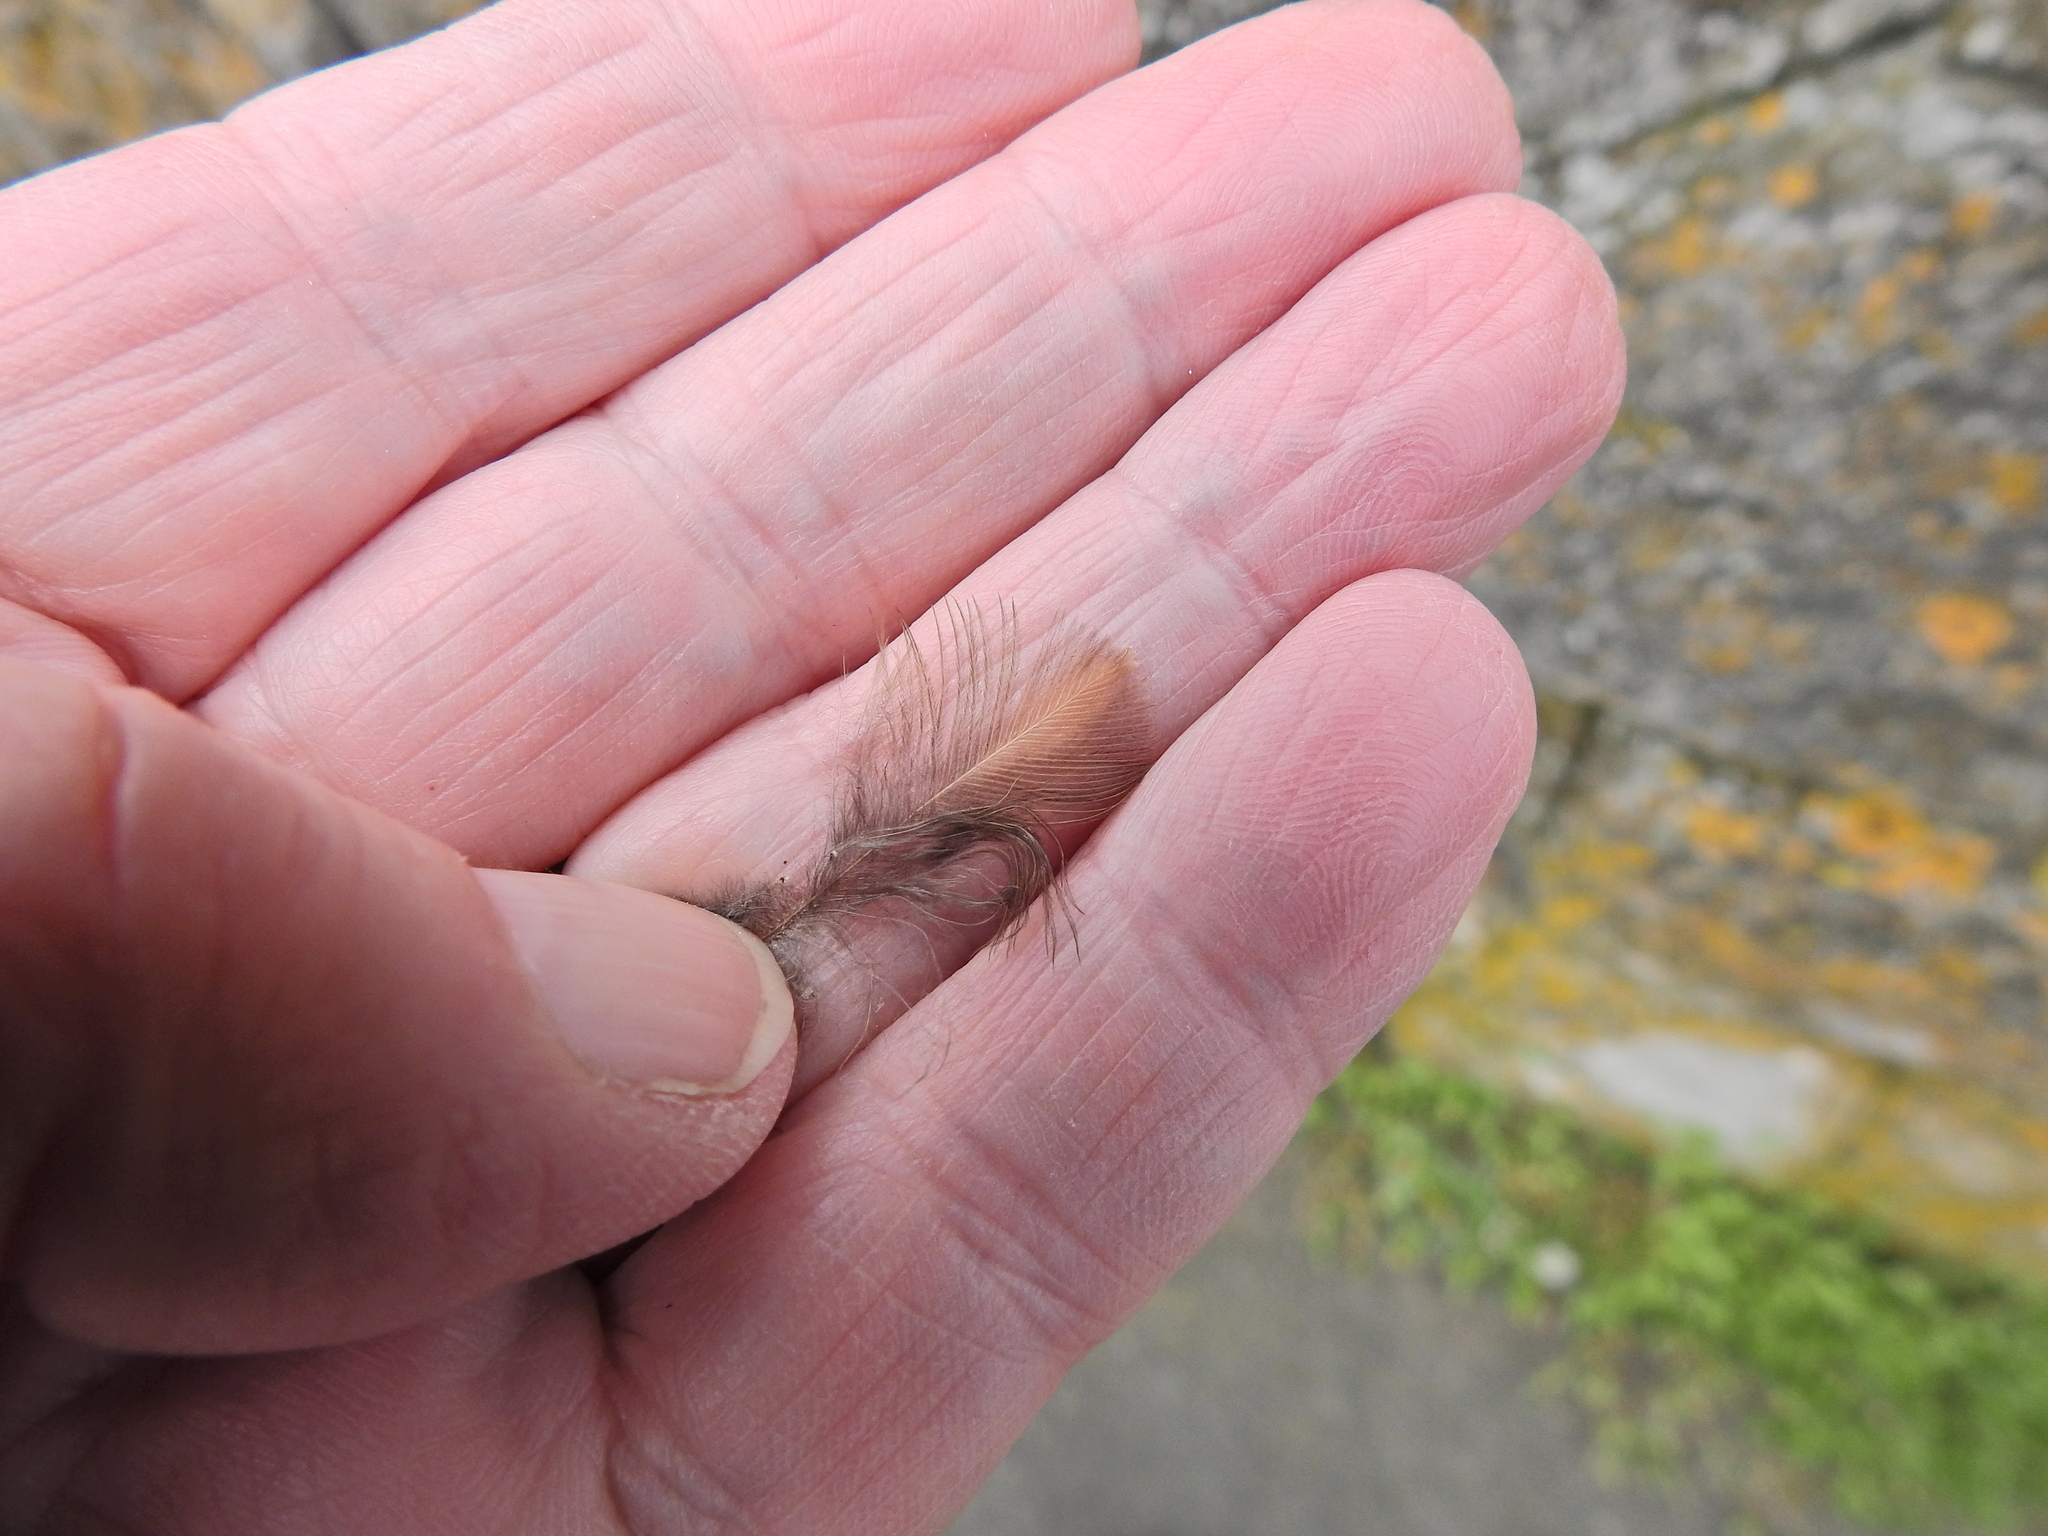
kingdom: Animalia
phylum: Chordata
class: Aves
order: Passeriformes
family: Turdidae
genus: Turdus
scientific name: Turdus merula
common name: Common blackbird
